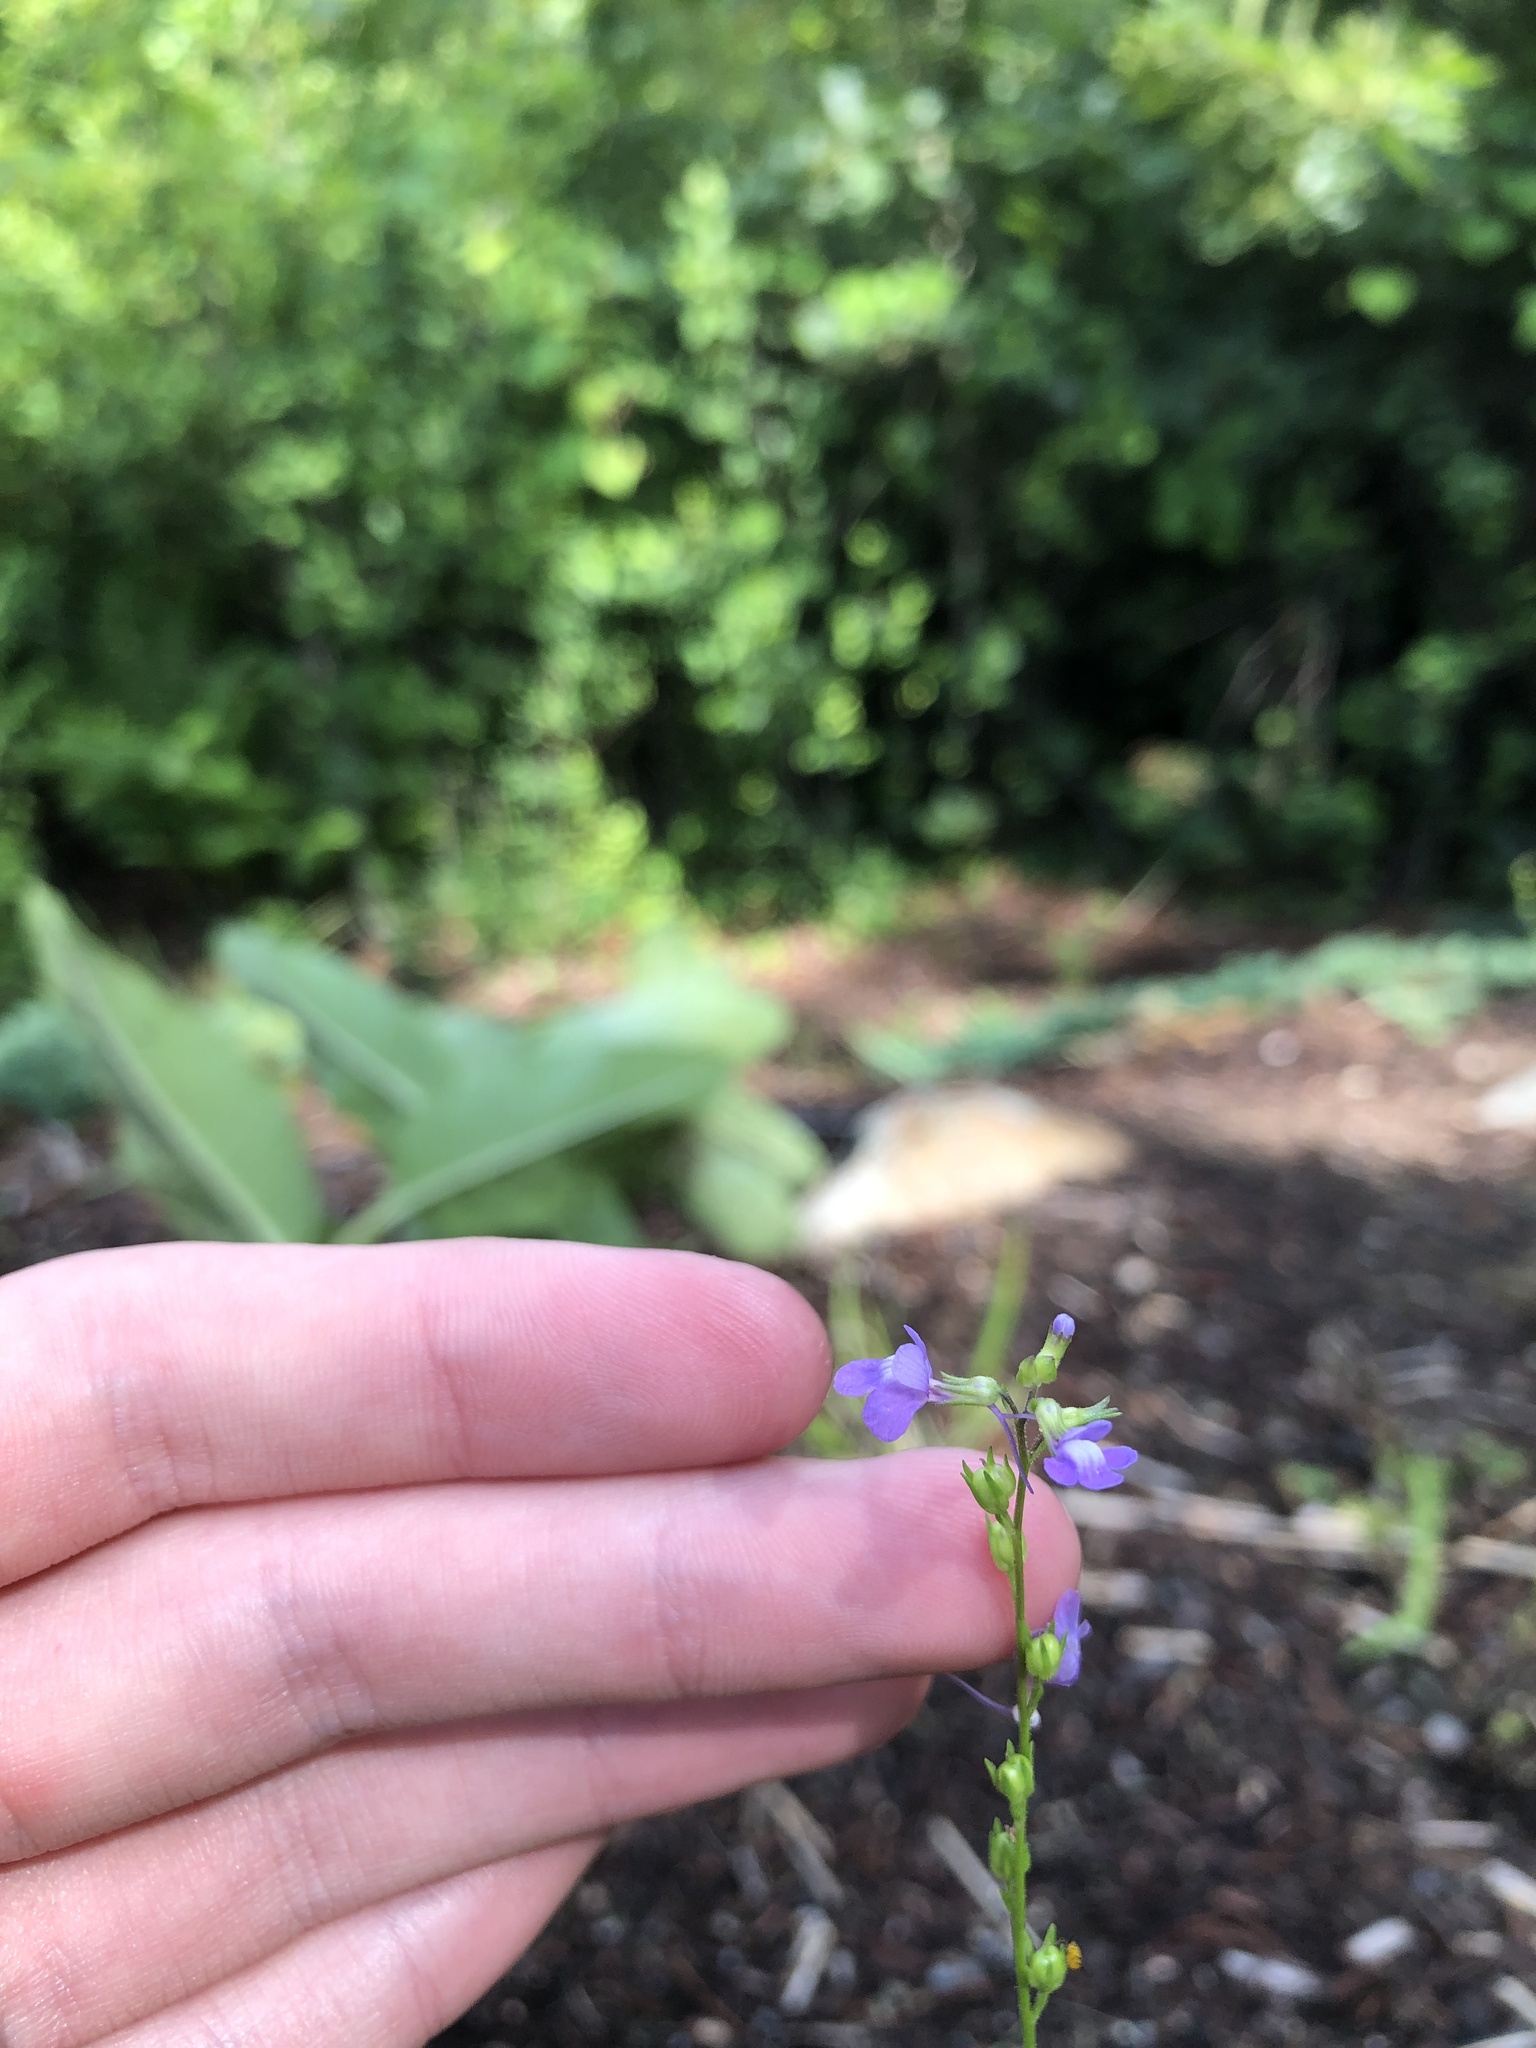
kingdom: Plantae
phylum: Tracheophyta
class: Magnoliopsida
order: Lamiales
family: Plantaginaceae
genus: Nuttallanthus
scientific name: Nuttallanthus canadensis
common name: Blue toadflax
